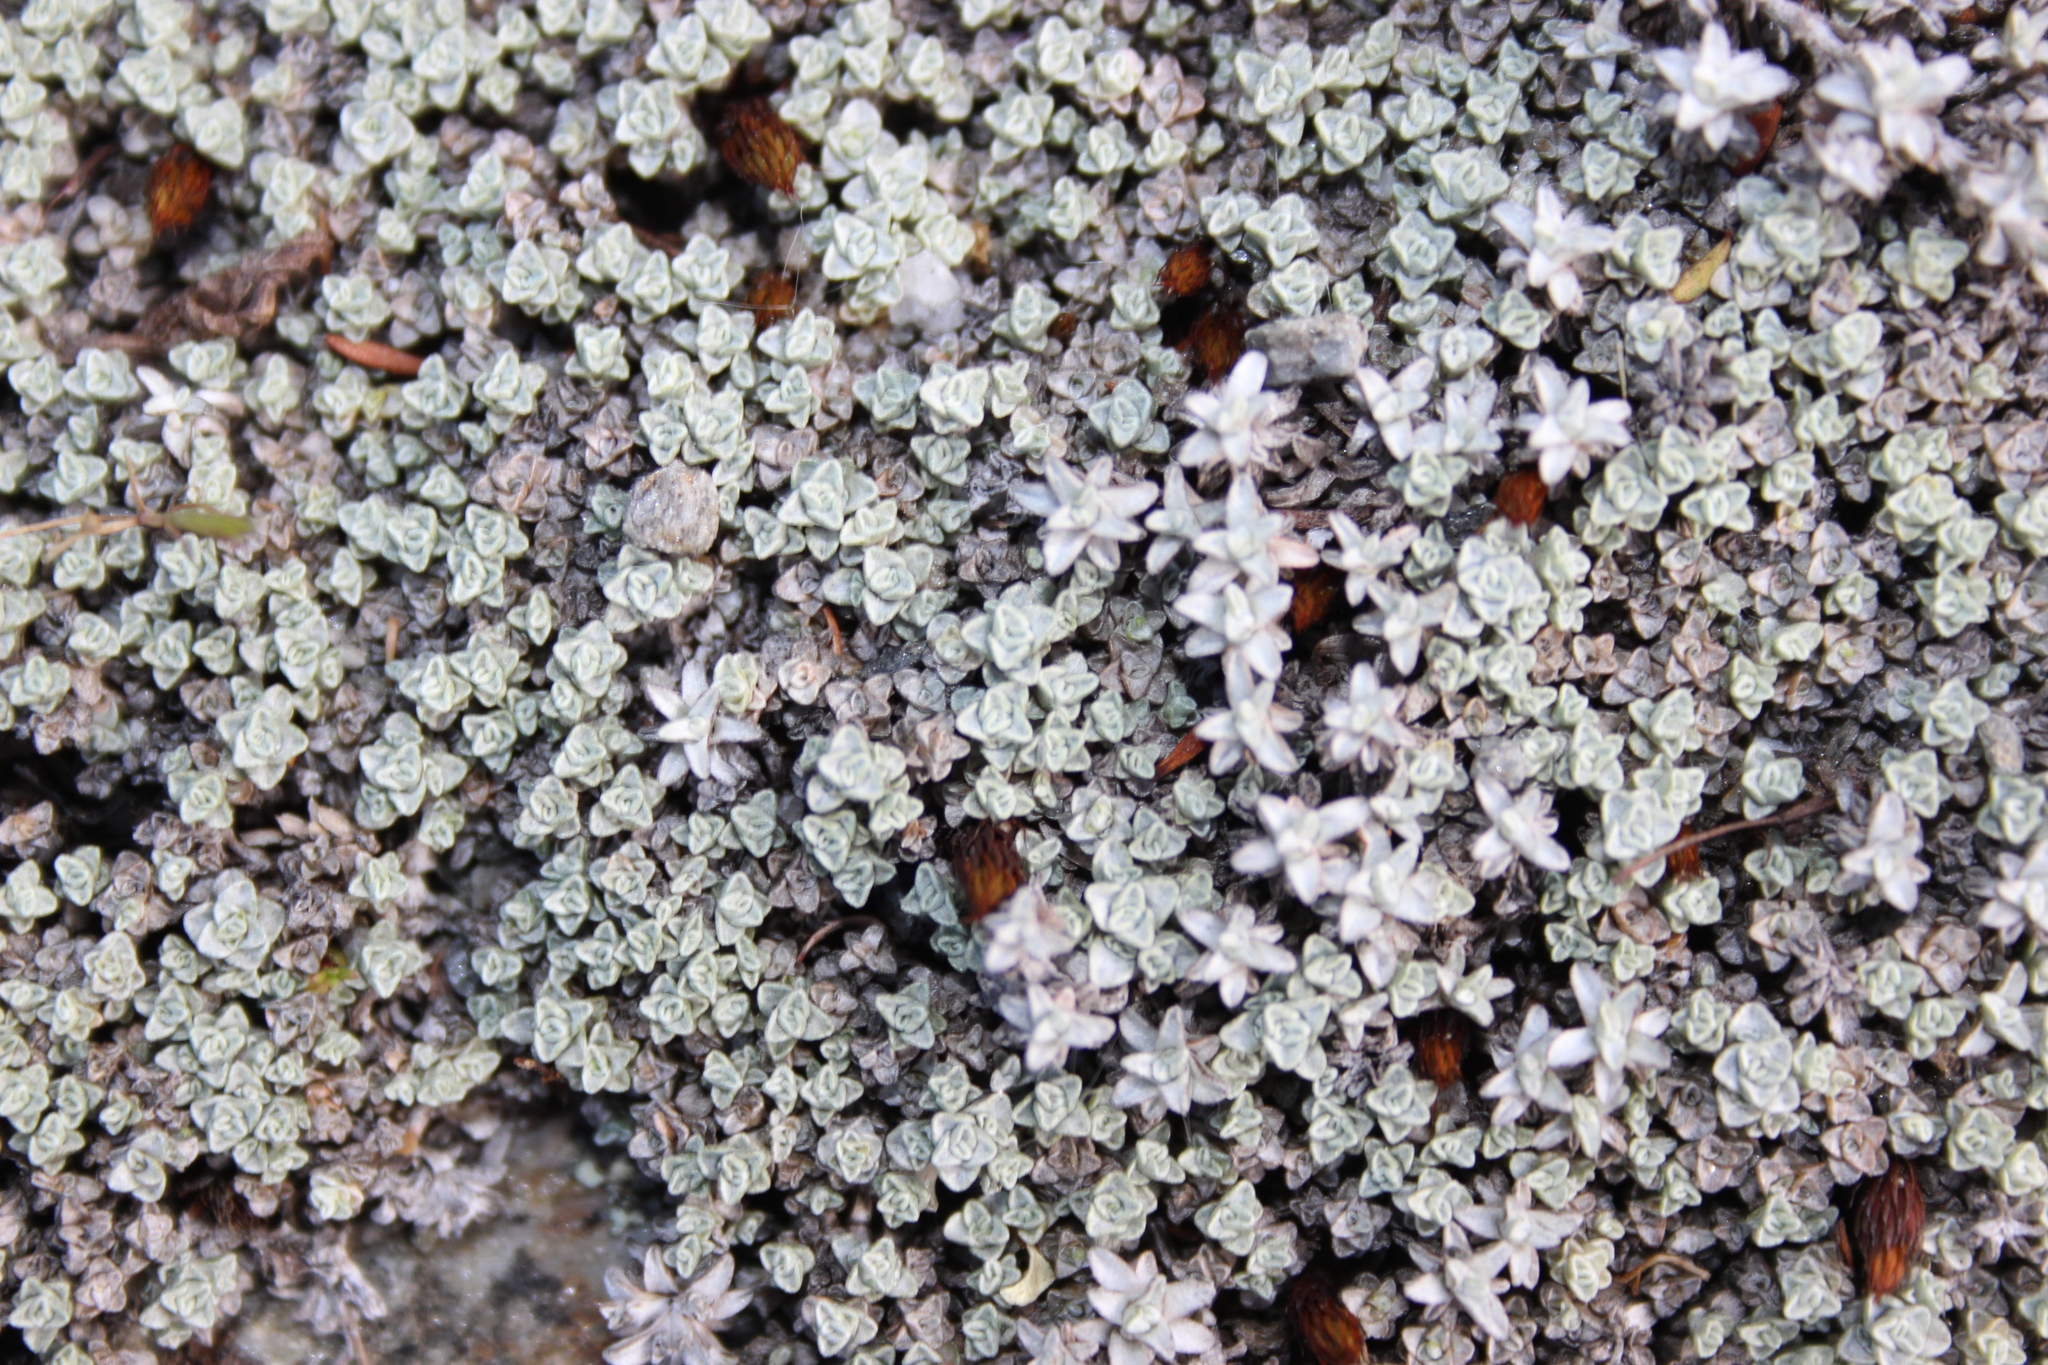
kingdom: Plantae
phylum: Tracheophyta
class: Magnoliopsida
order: Asterales
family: Asteraceae
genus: Raoulia
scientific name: Raoulia beauverdii
